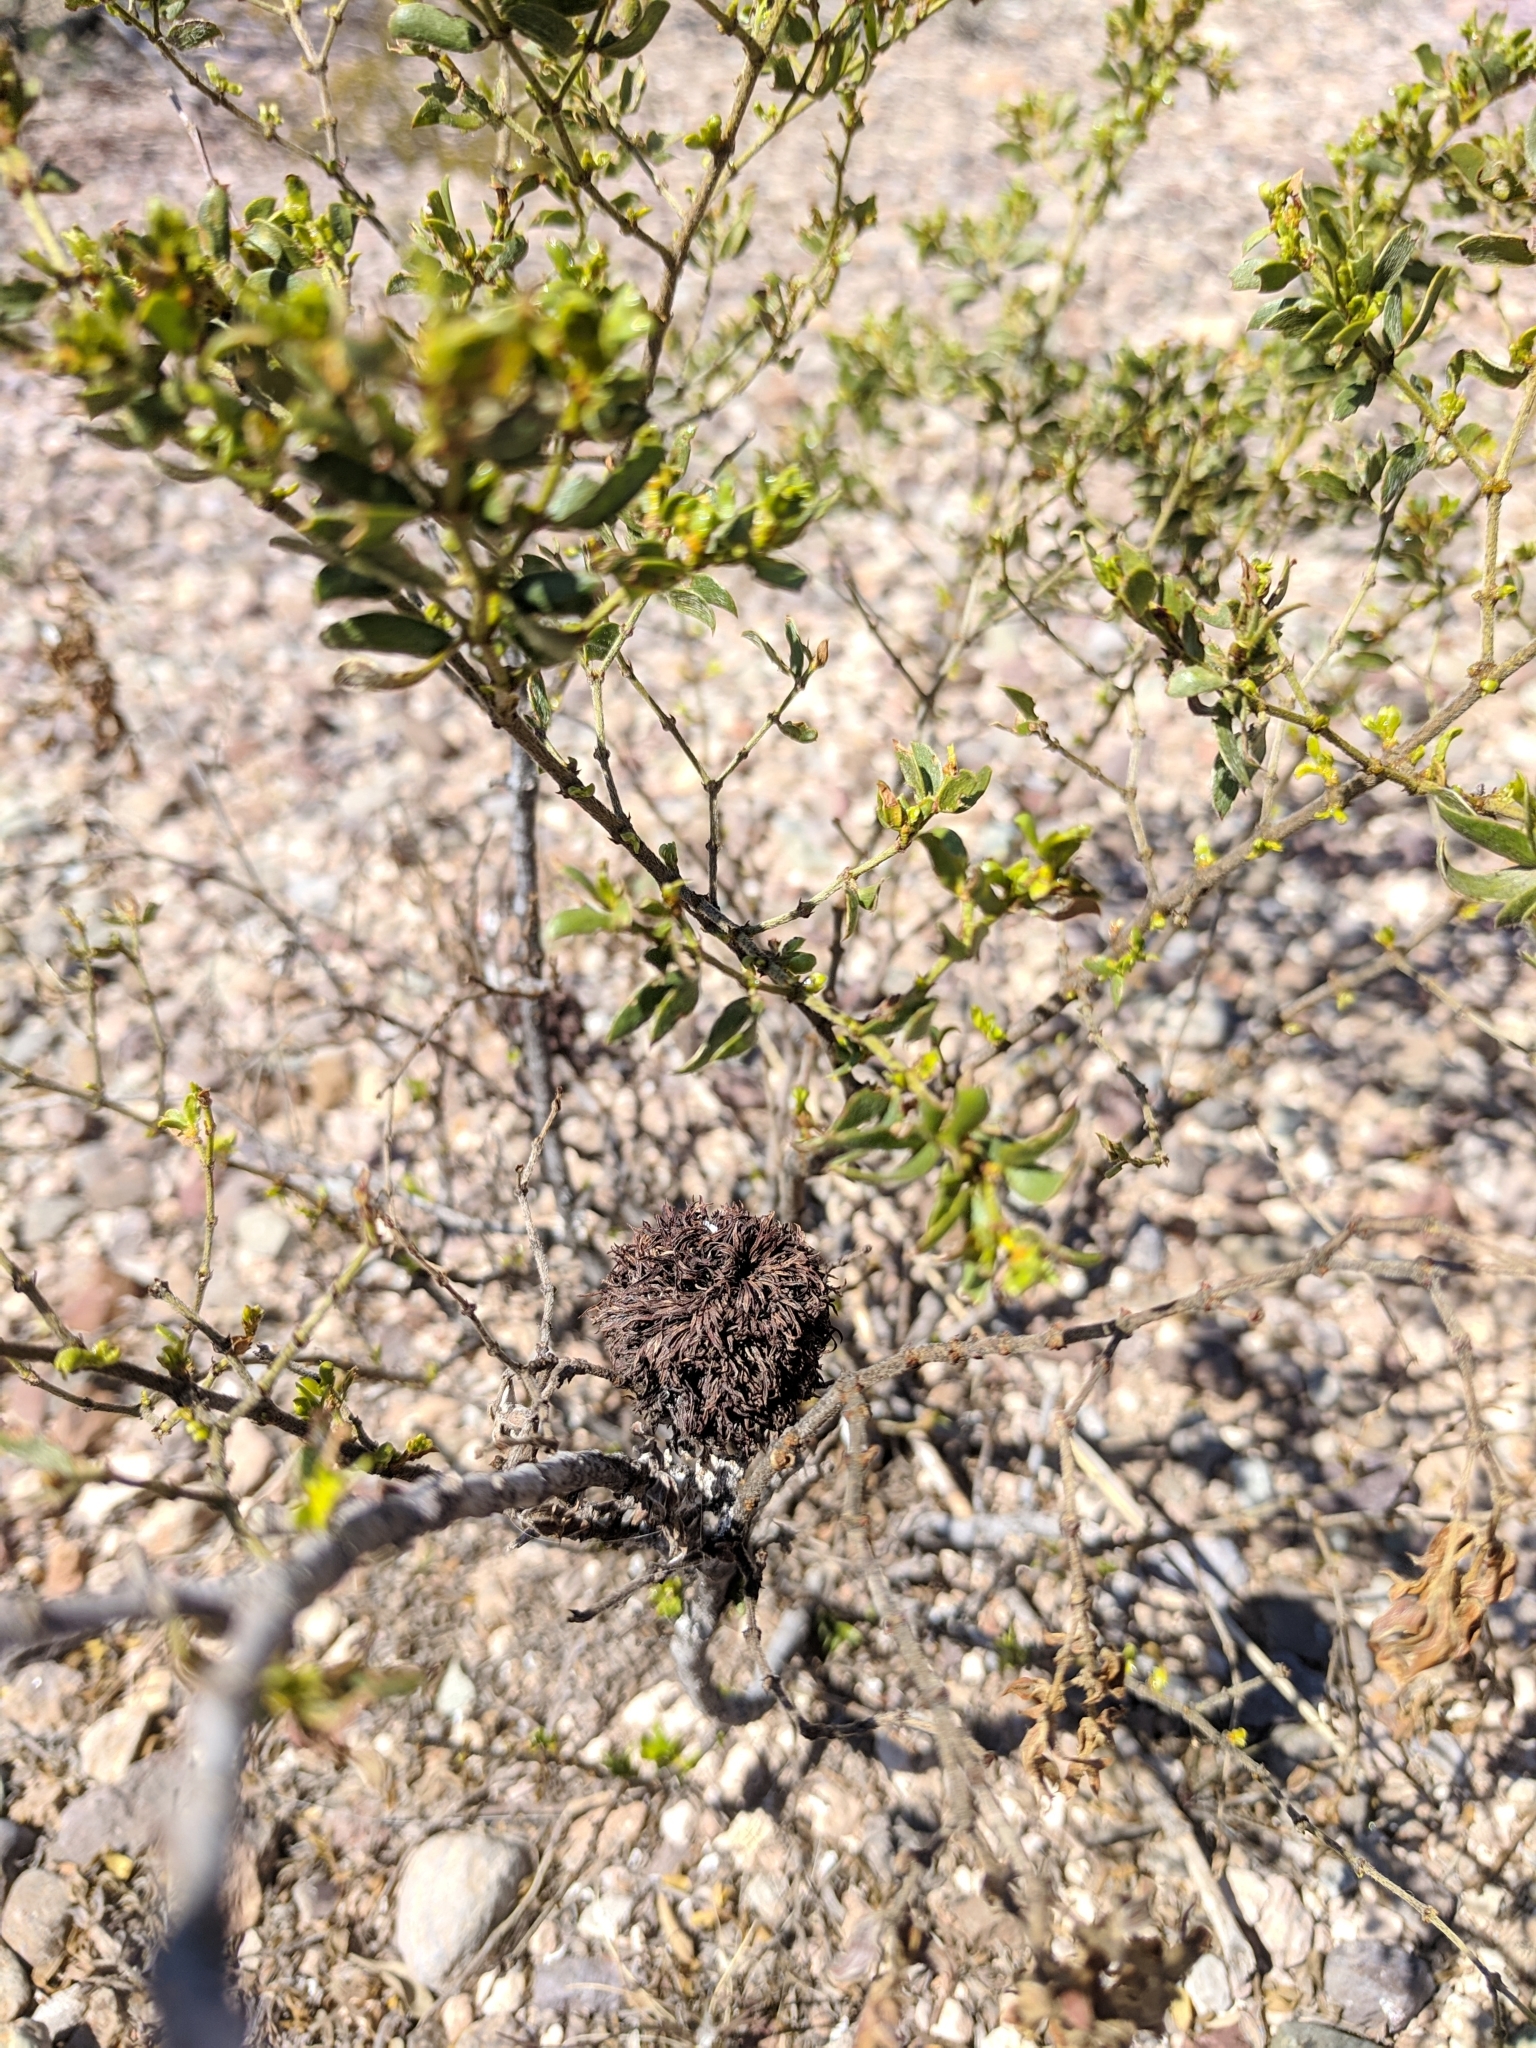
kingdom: Animalia
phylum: Arthropoda
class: Insecta
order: Diptera
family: Cecidomyiidae
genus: Asphondylia
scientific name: Asphondylia auripila
